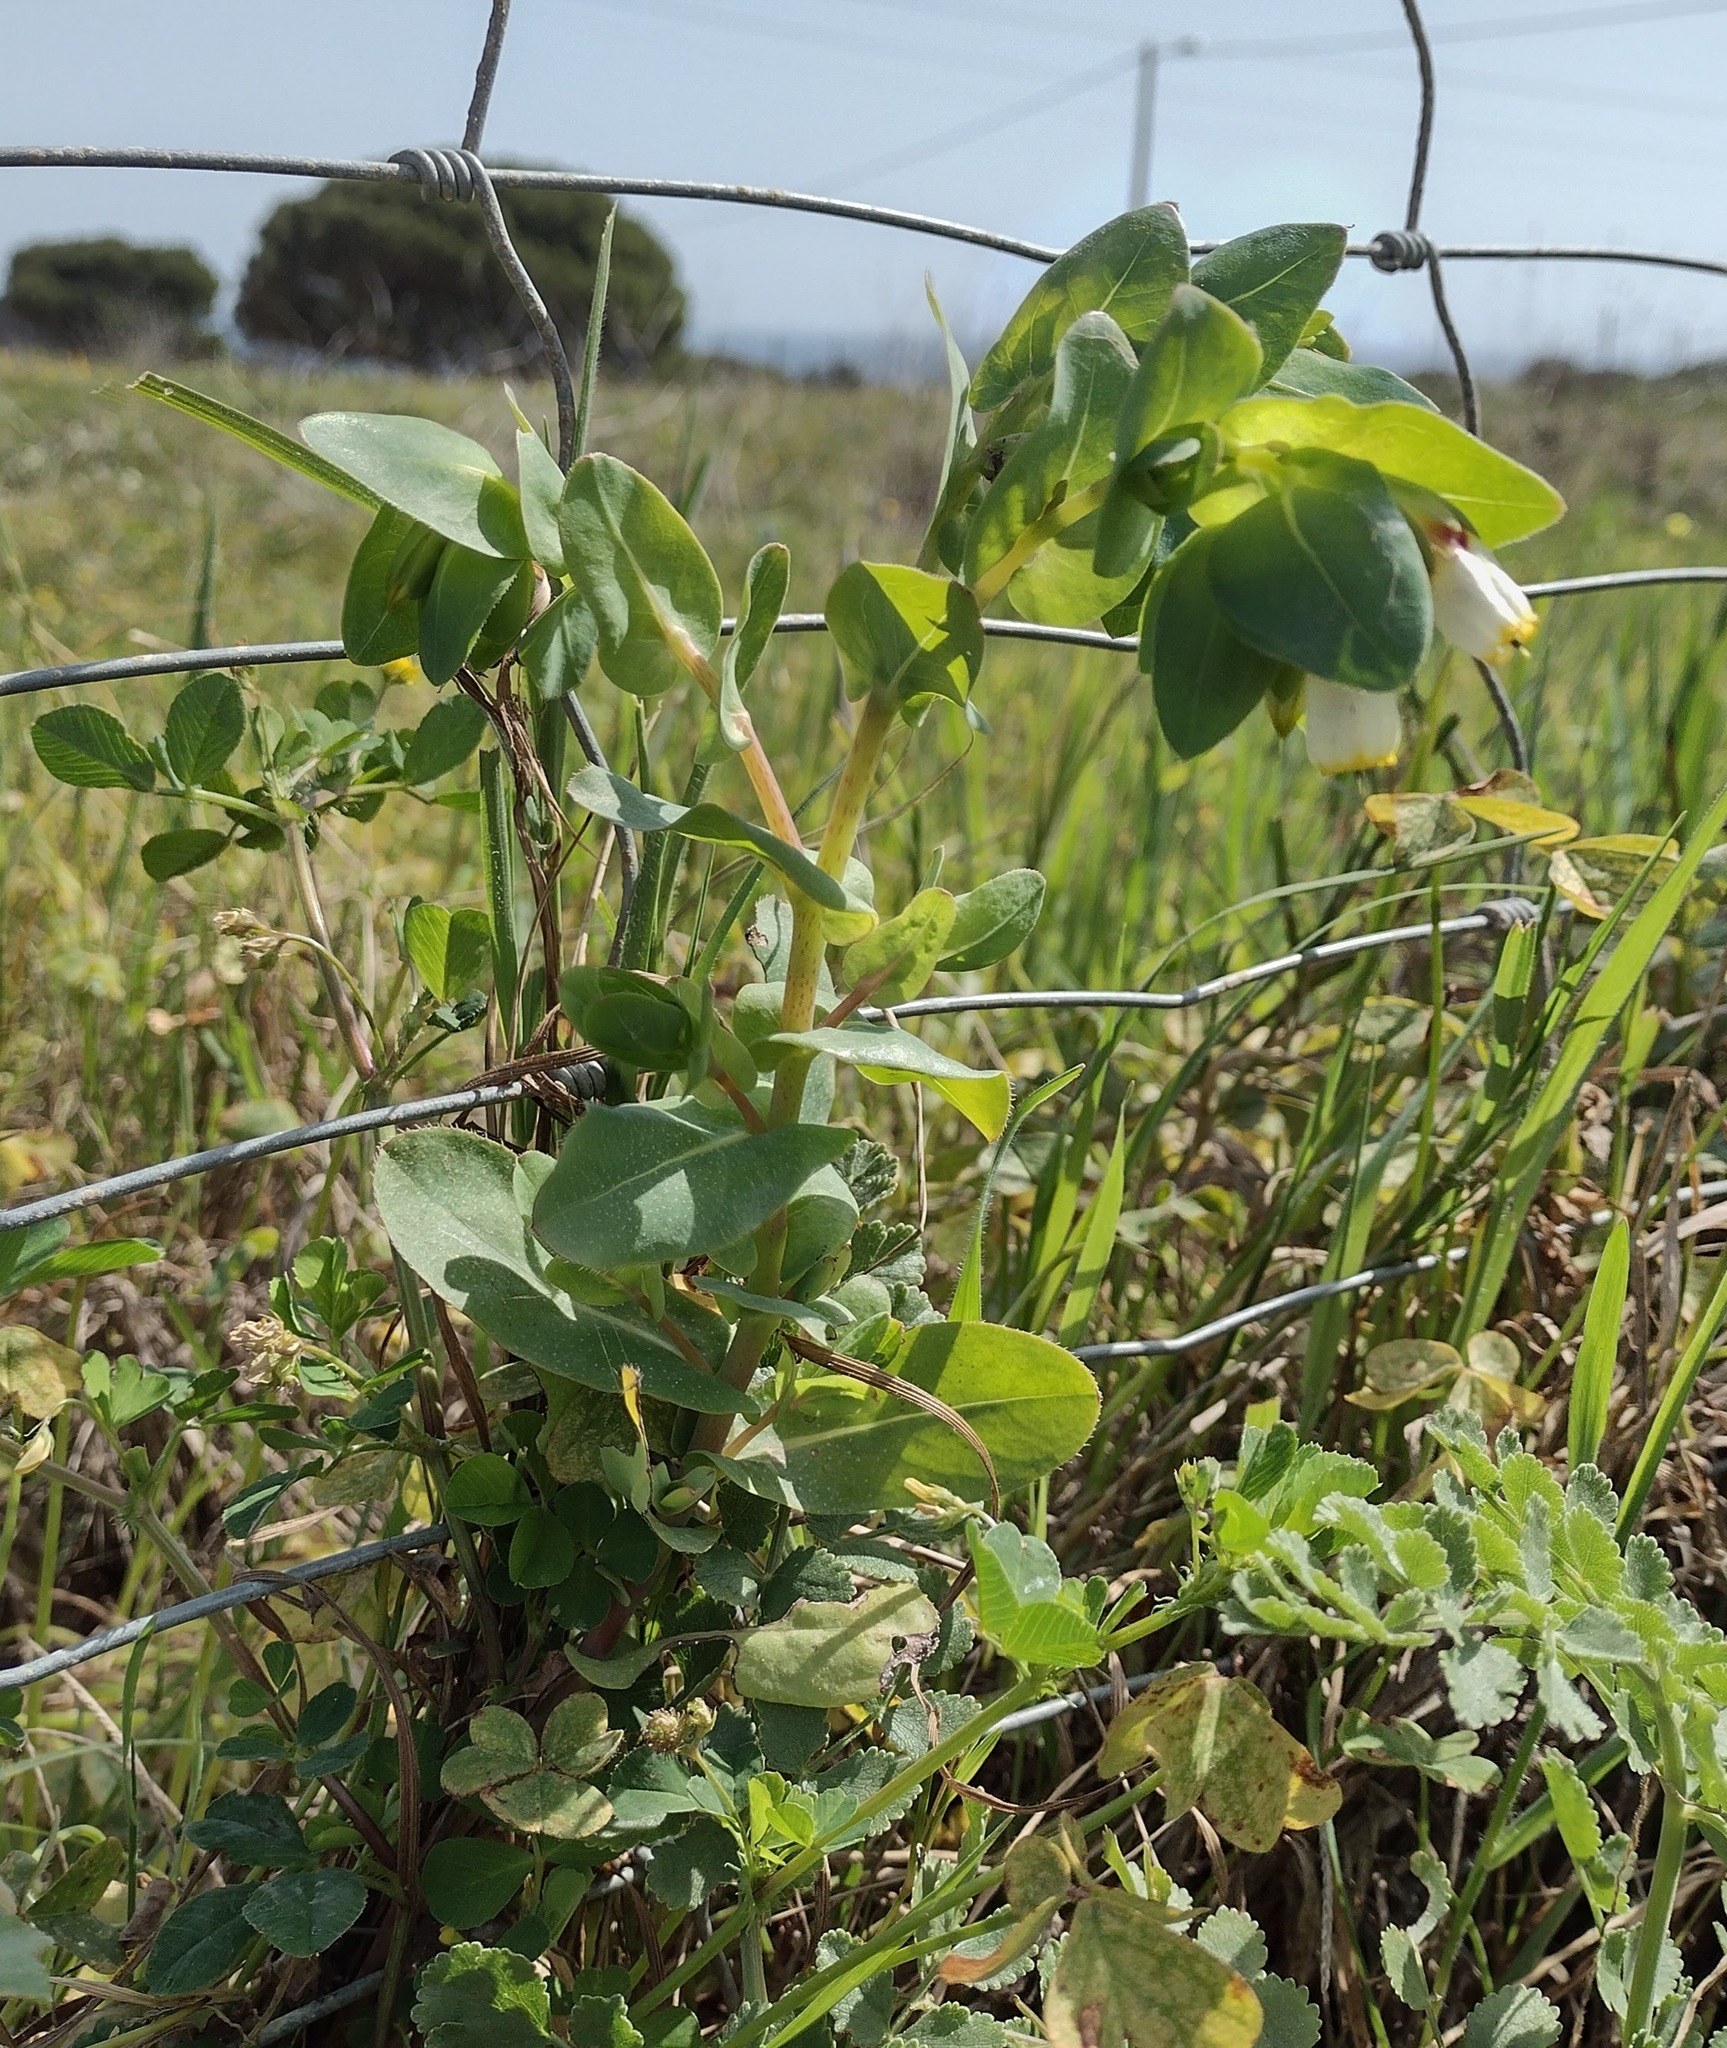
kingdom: Plantae
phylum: Tracheophyta
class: Magnoliopsida
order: Boraginales
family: Boraginaceae
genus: Cerinthe
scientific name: Cerinthe major
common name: Greater honeywort
